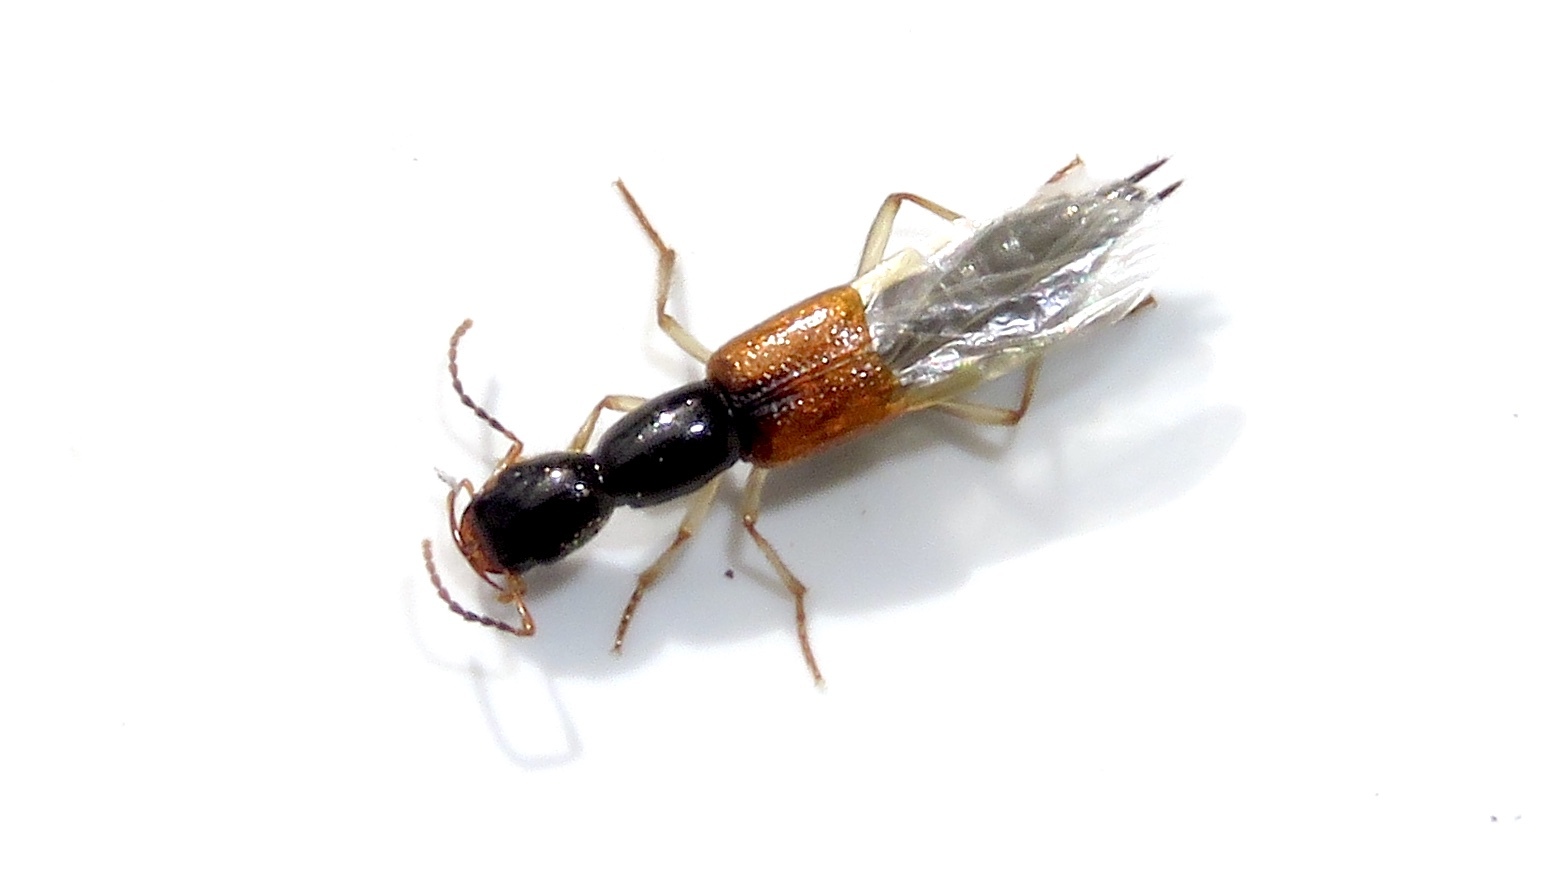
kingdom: Animalia
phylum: Arthropoda
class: Insecta
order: Coleoptera
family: Staphylinidae
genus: Homaeotarsus
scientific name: Homaeotarsus cribratus
